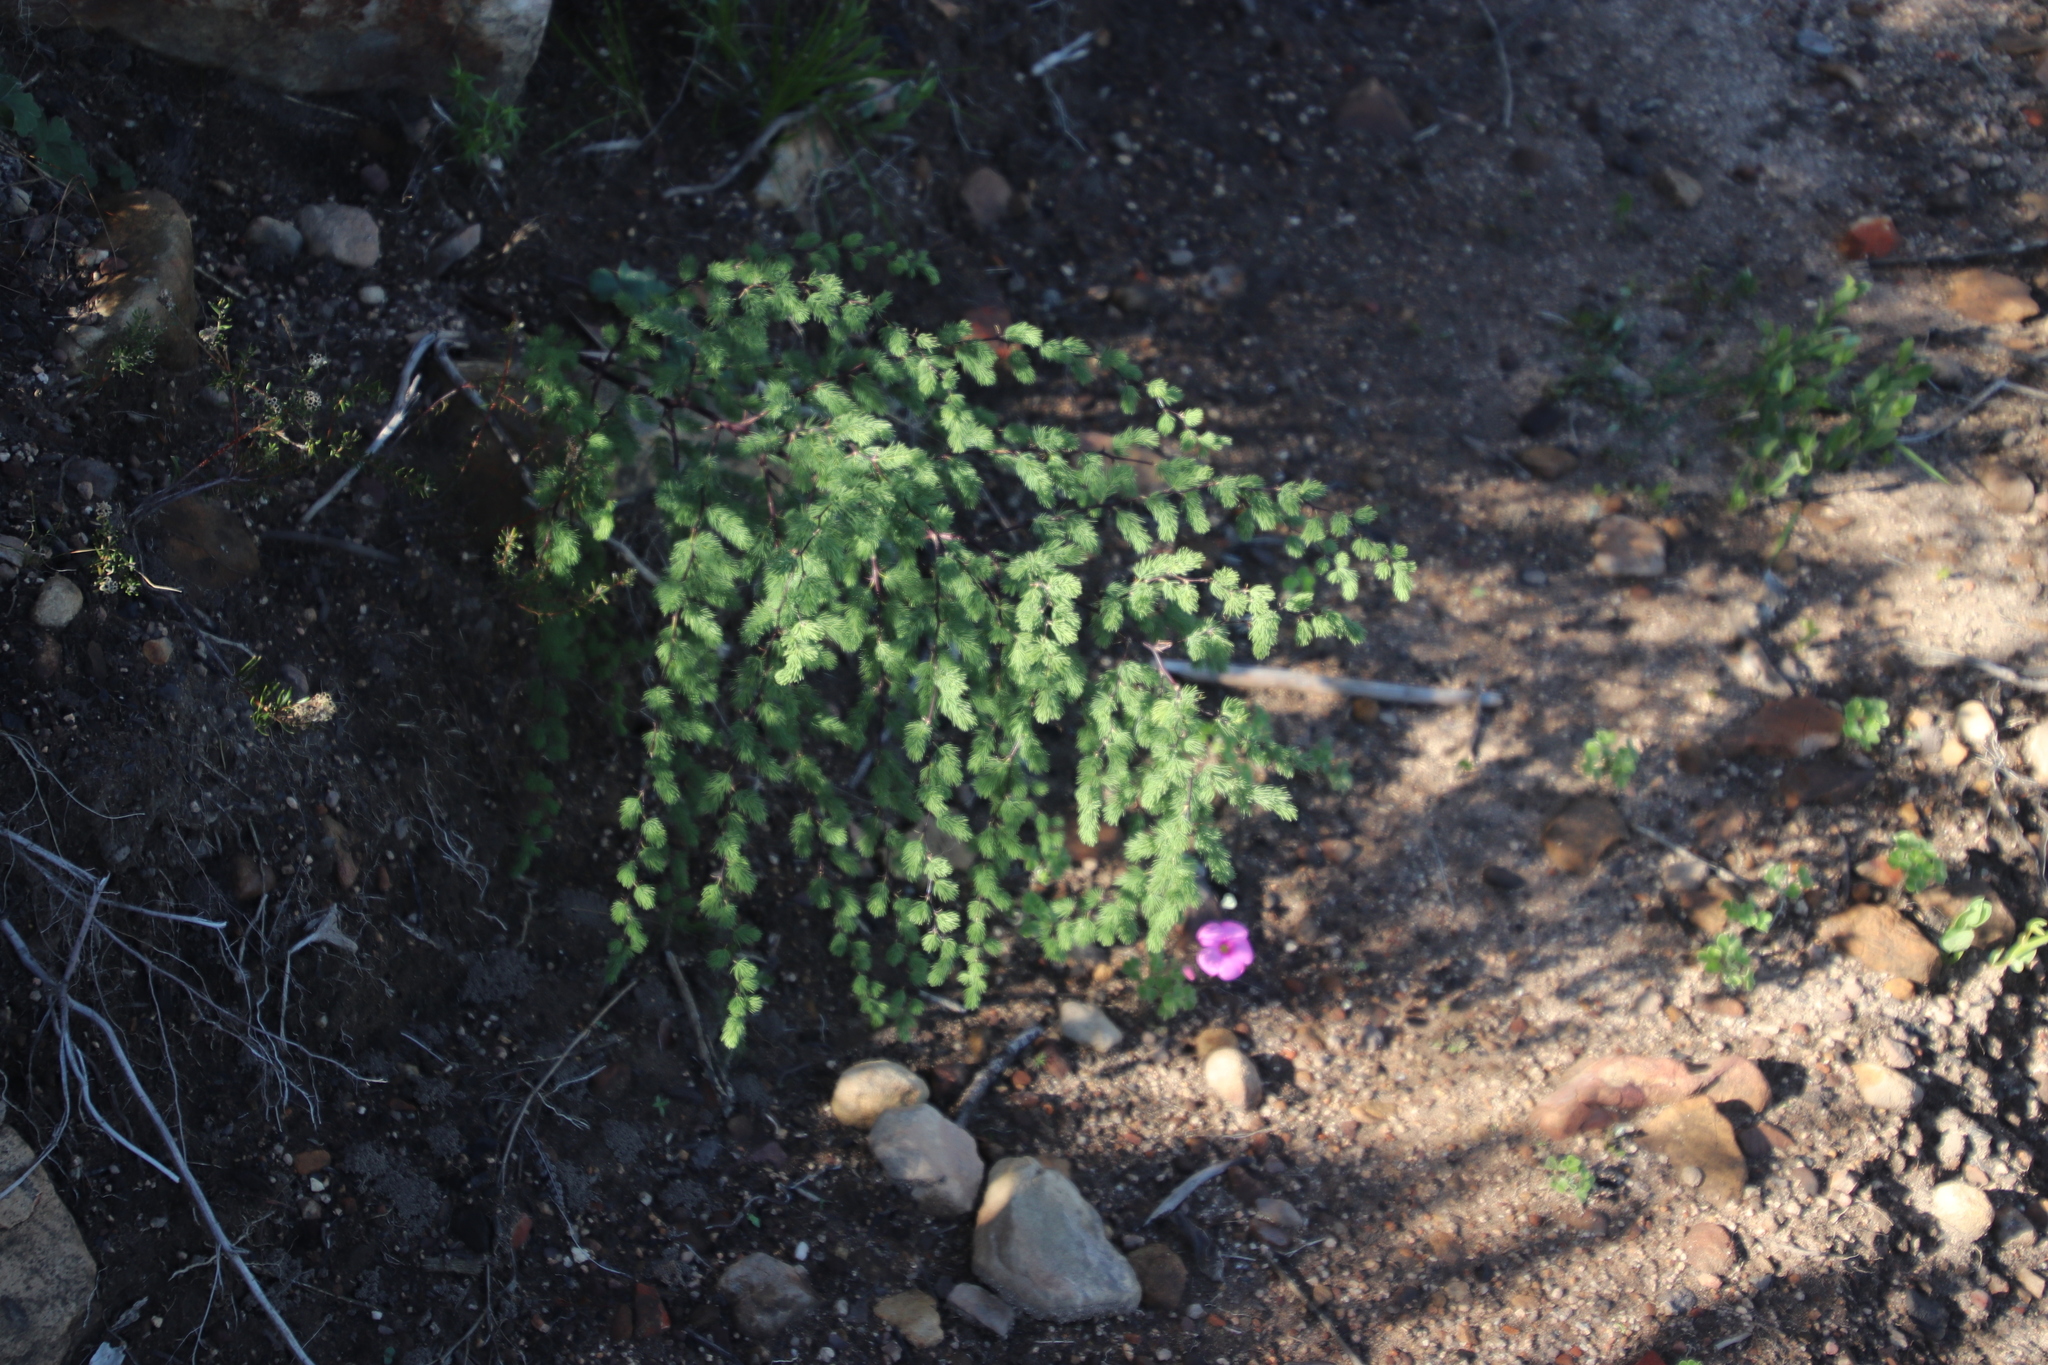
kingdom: Plantae
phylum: Tracheophyta
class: Liliopsida
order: Asparagales
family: Asparagaceae
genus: Asparagus
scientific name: Asparagus rubicundus
